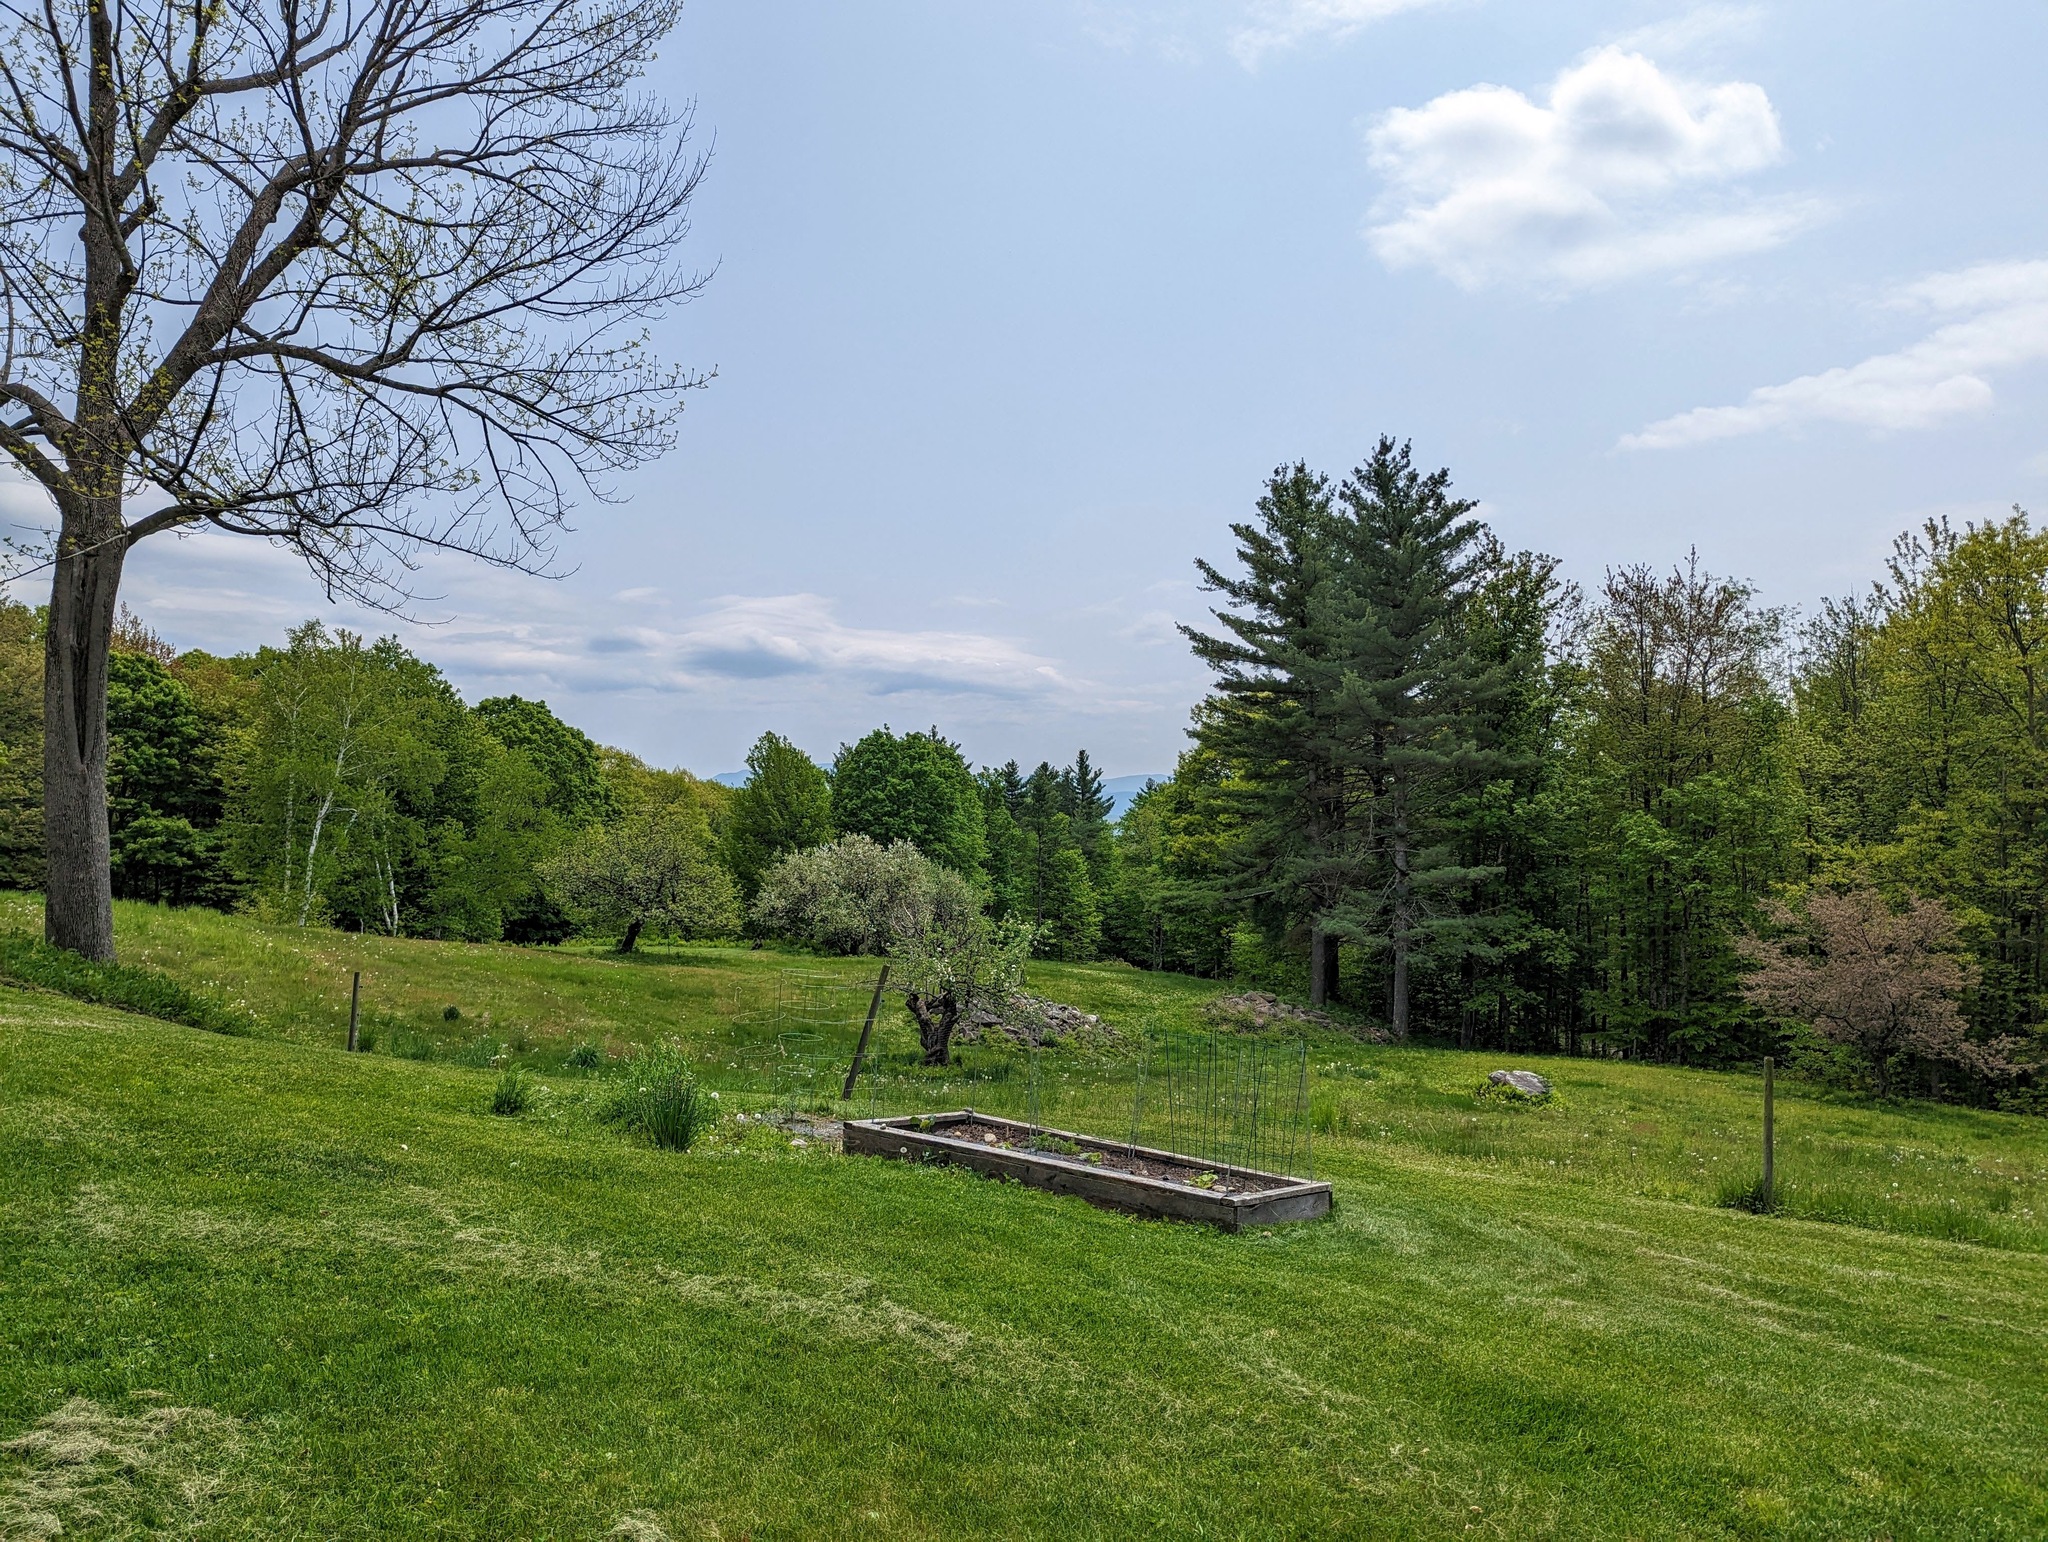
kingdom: Plantae
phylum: Tracheophyta
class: Pinopsida
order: Pinales
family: Pinaceae
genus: Pinus
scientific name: Pinus strobus
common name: Weymouth pine
